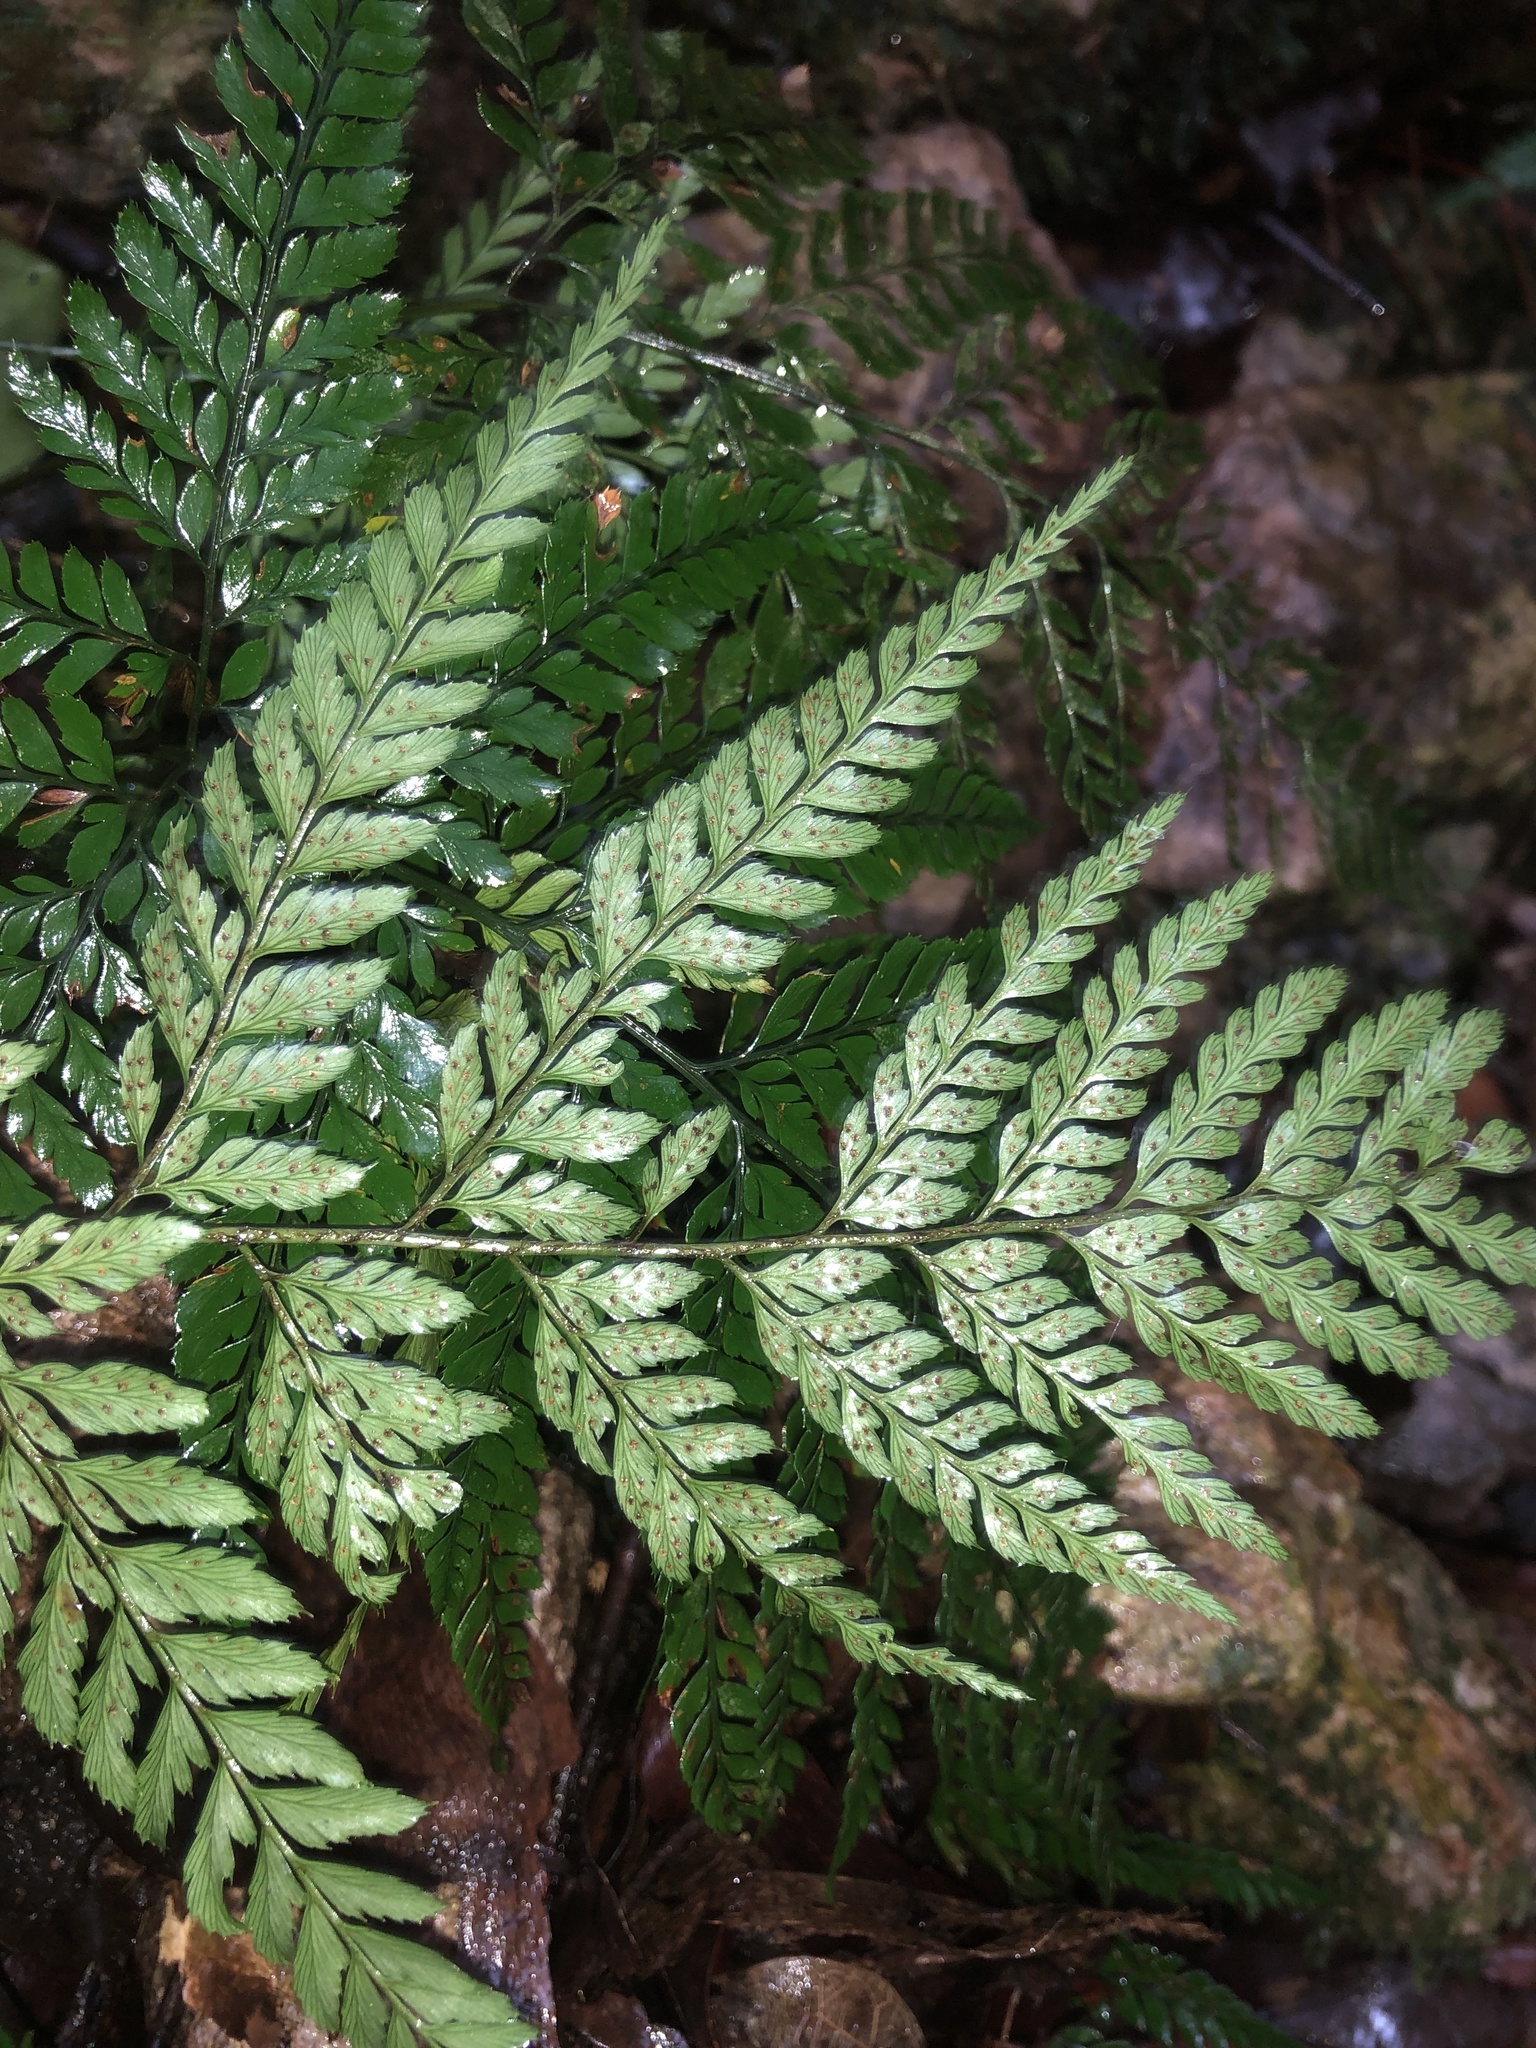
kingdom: Plantae
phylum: Tracheophyta
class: Polypodiopsida
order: Polypodiales
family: Dryopteridaceae
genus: Arachniodes
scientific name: Arachniodes aristata
